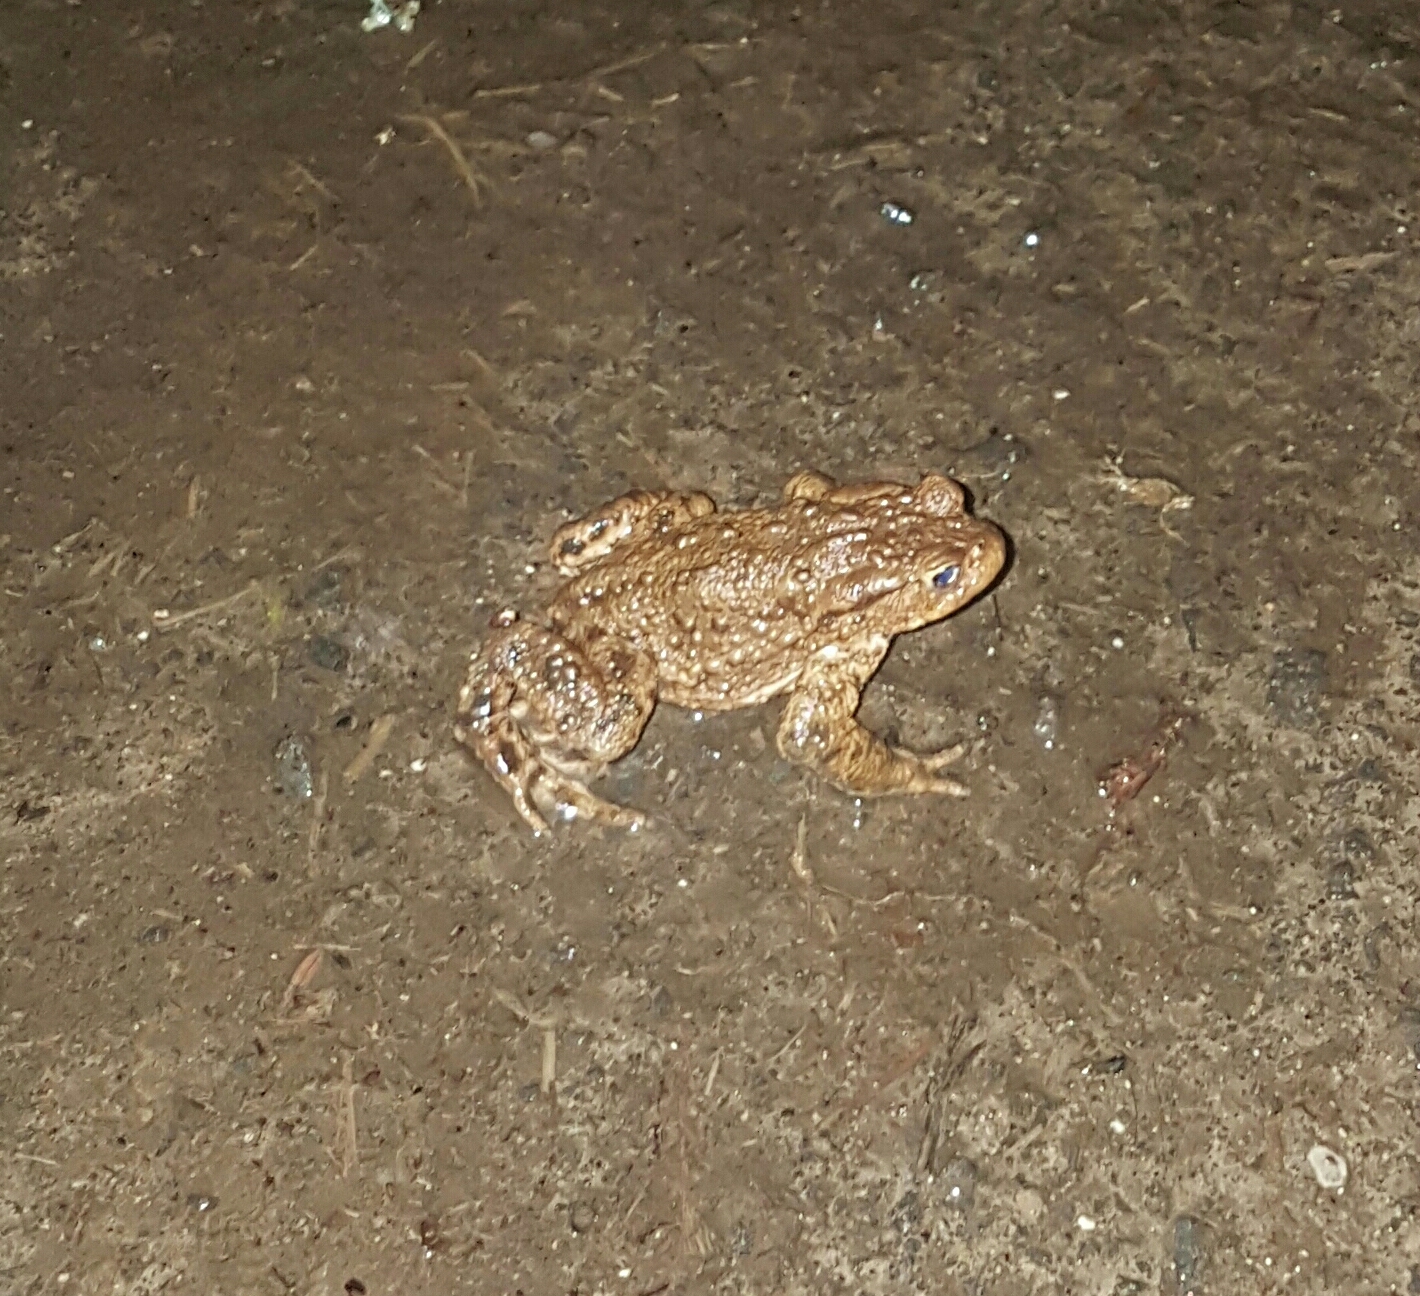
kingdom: Animalia
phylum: Chordata
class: Amphibia
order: Anura
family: Bufonidae
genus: Bufo
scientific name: Bufo bufo
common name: Common toad
